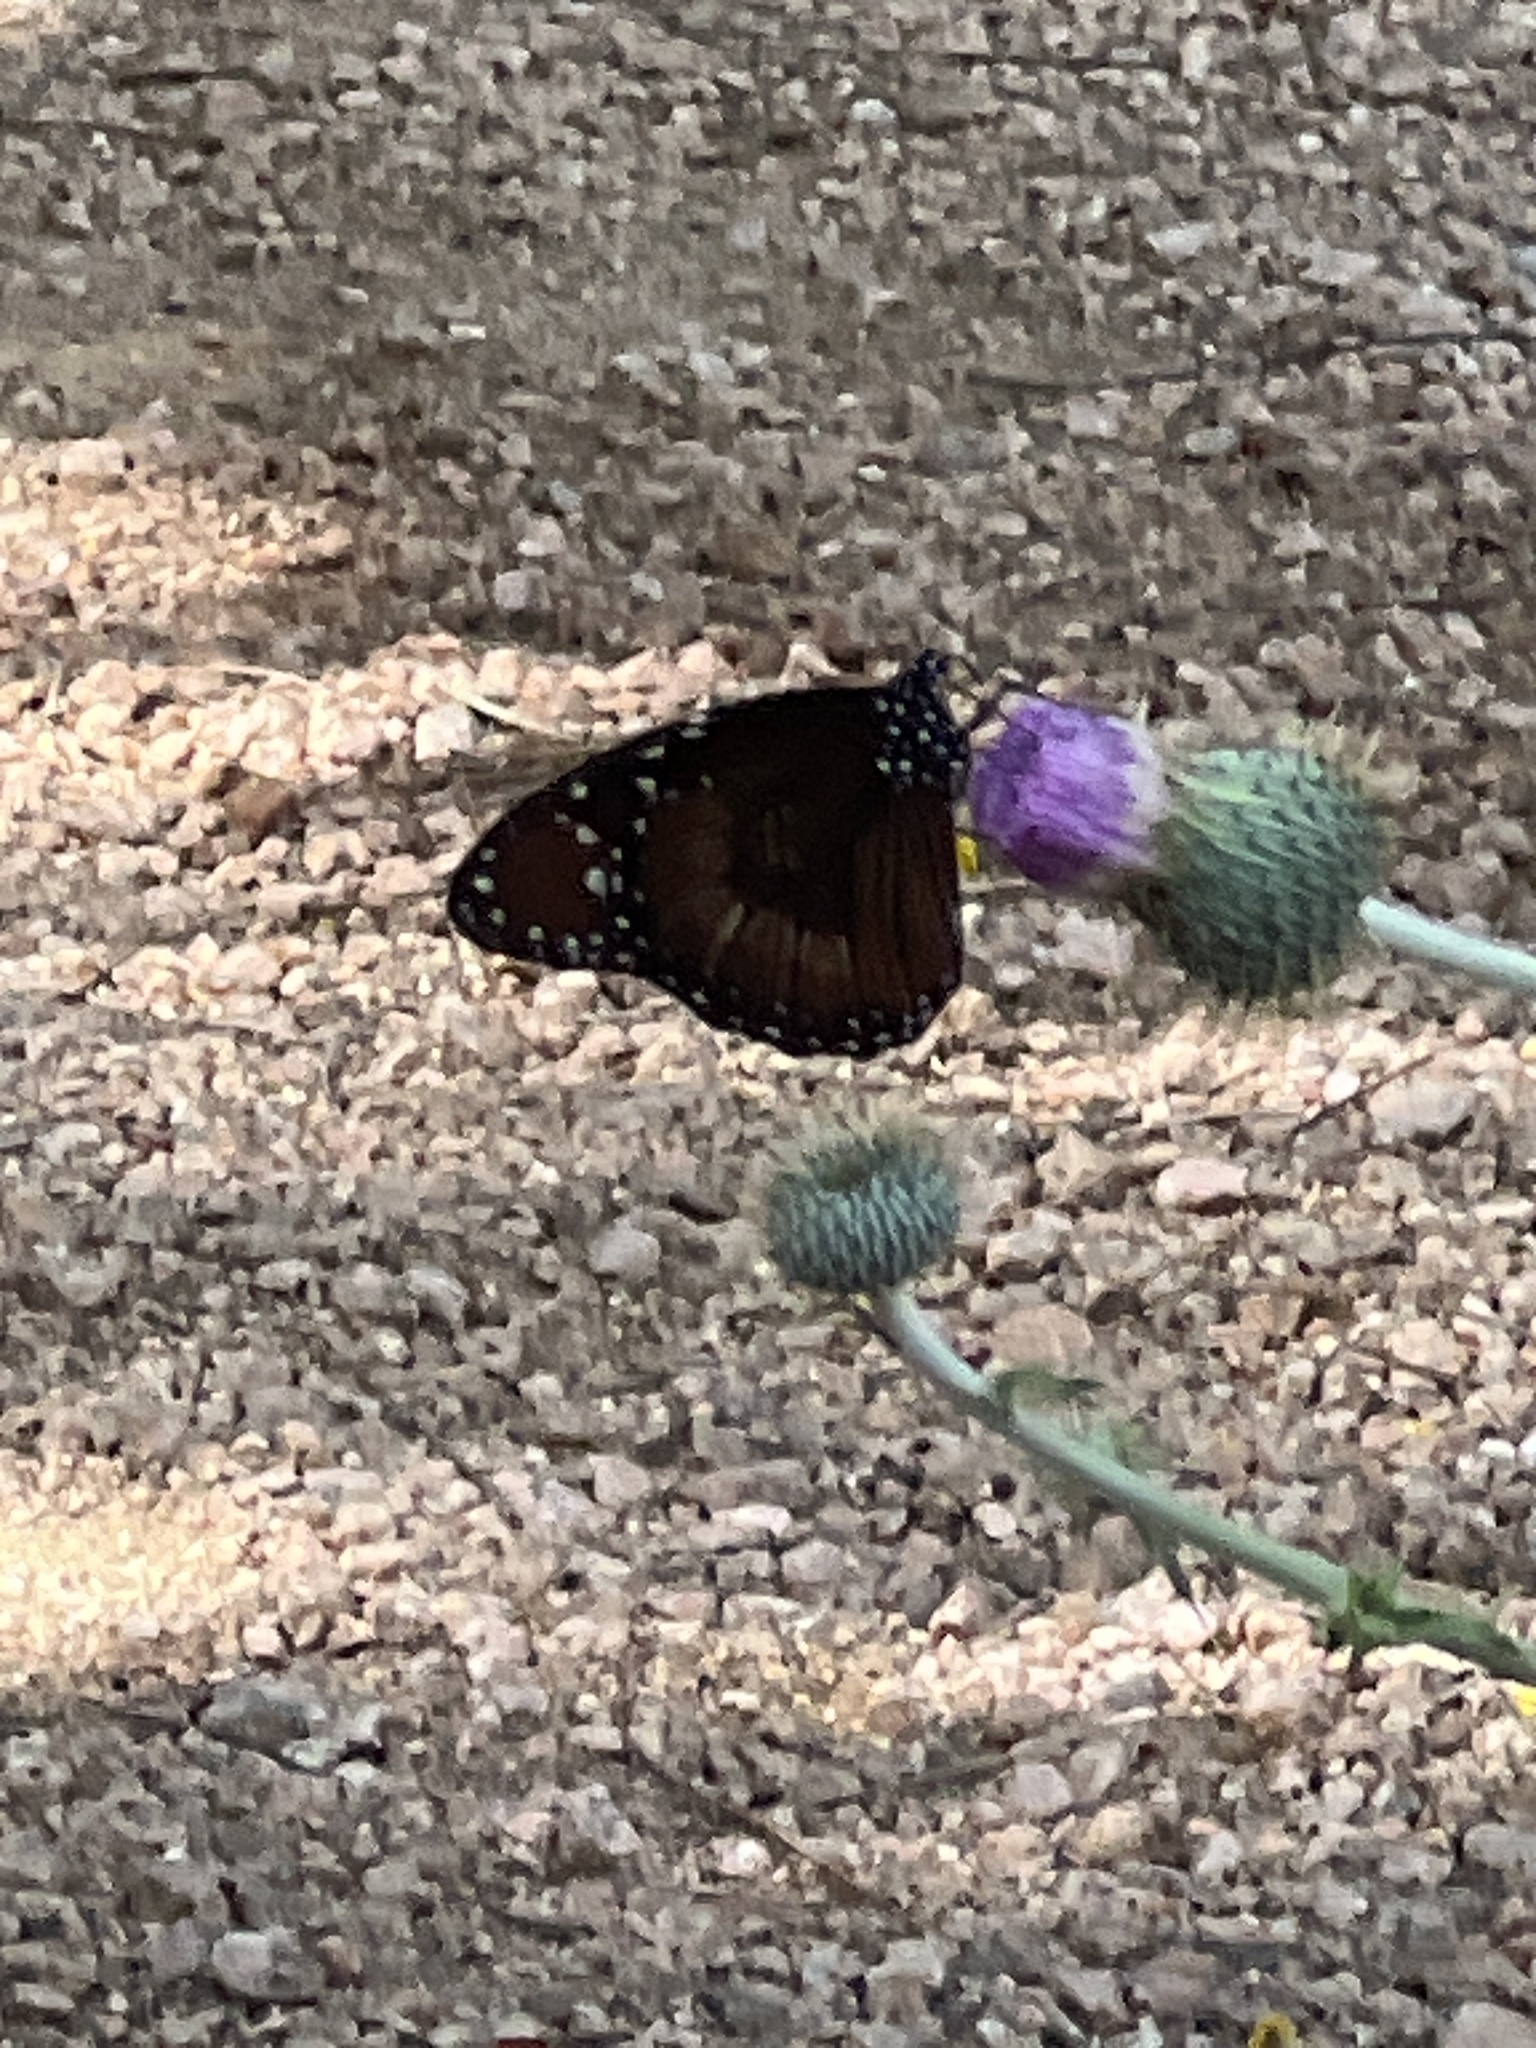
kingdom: Animalia
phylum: Arthropoda
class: Insecta
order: Lepidoptera
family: Nymphalidae
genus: Danaus
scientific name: Danaus eresimus
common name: Soldier
